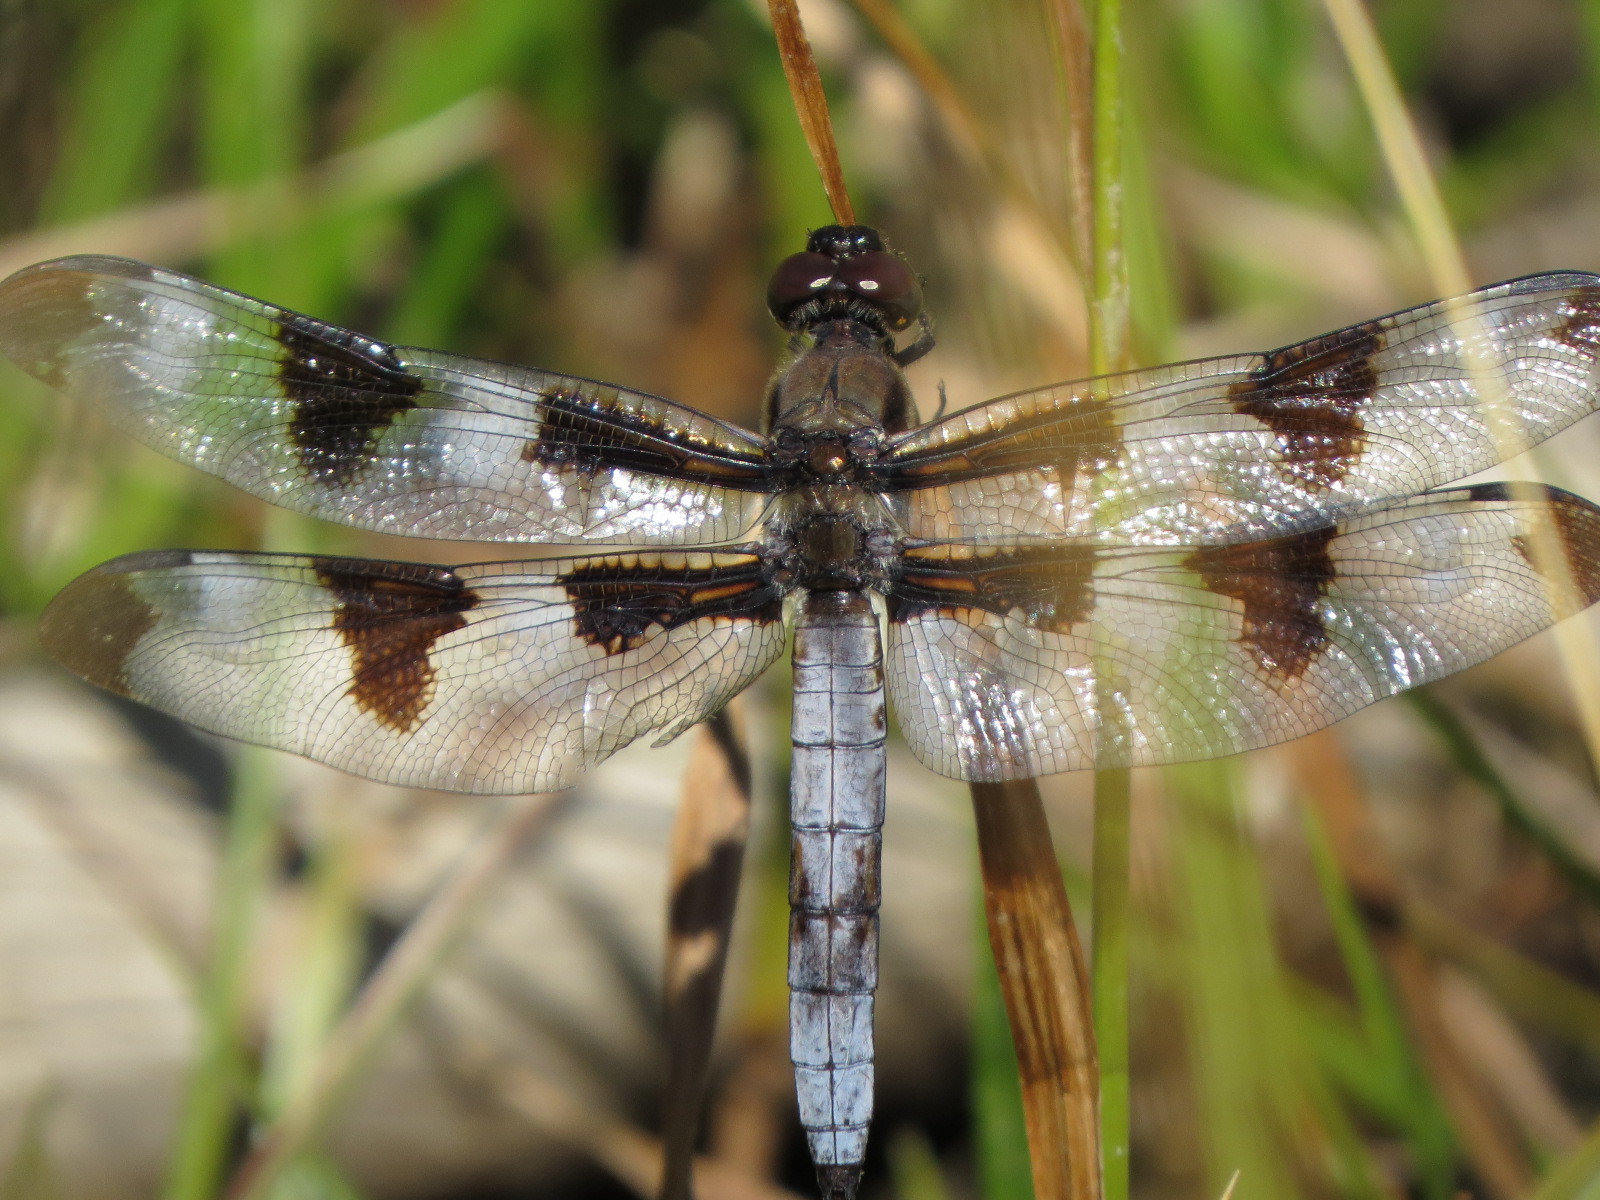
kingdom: Animalia
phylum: Arthropoda
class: Insecta
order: Odonata
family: Libellulidae
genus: Libellula
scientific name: Libellula pulchella
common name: Twelve-spotted skimmer
